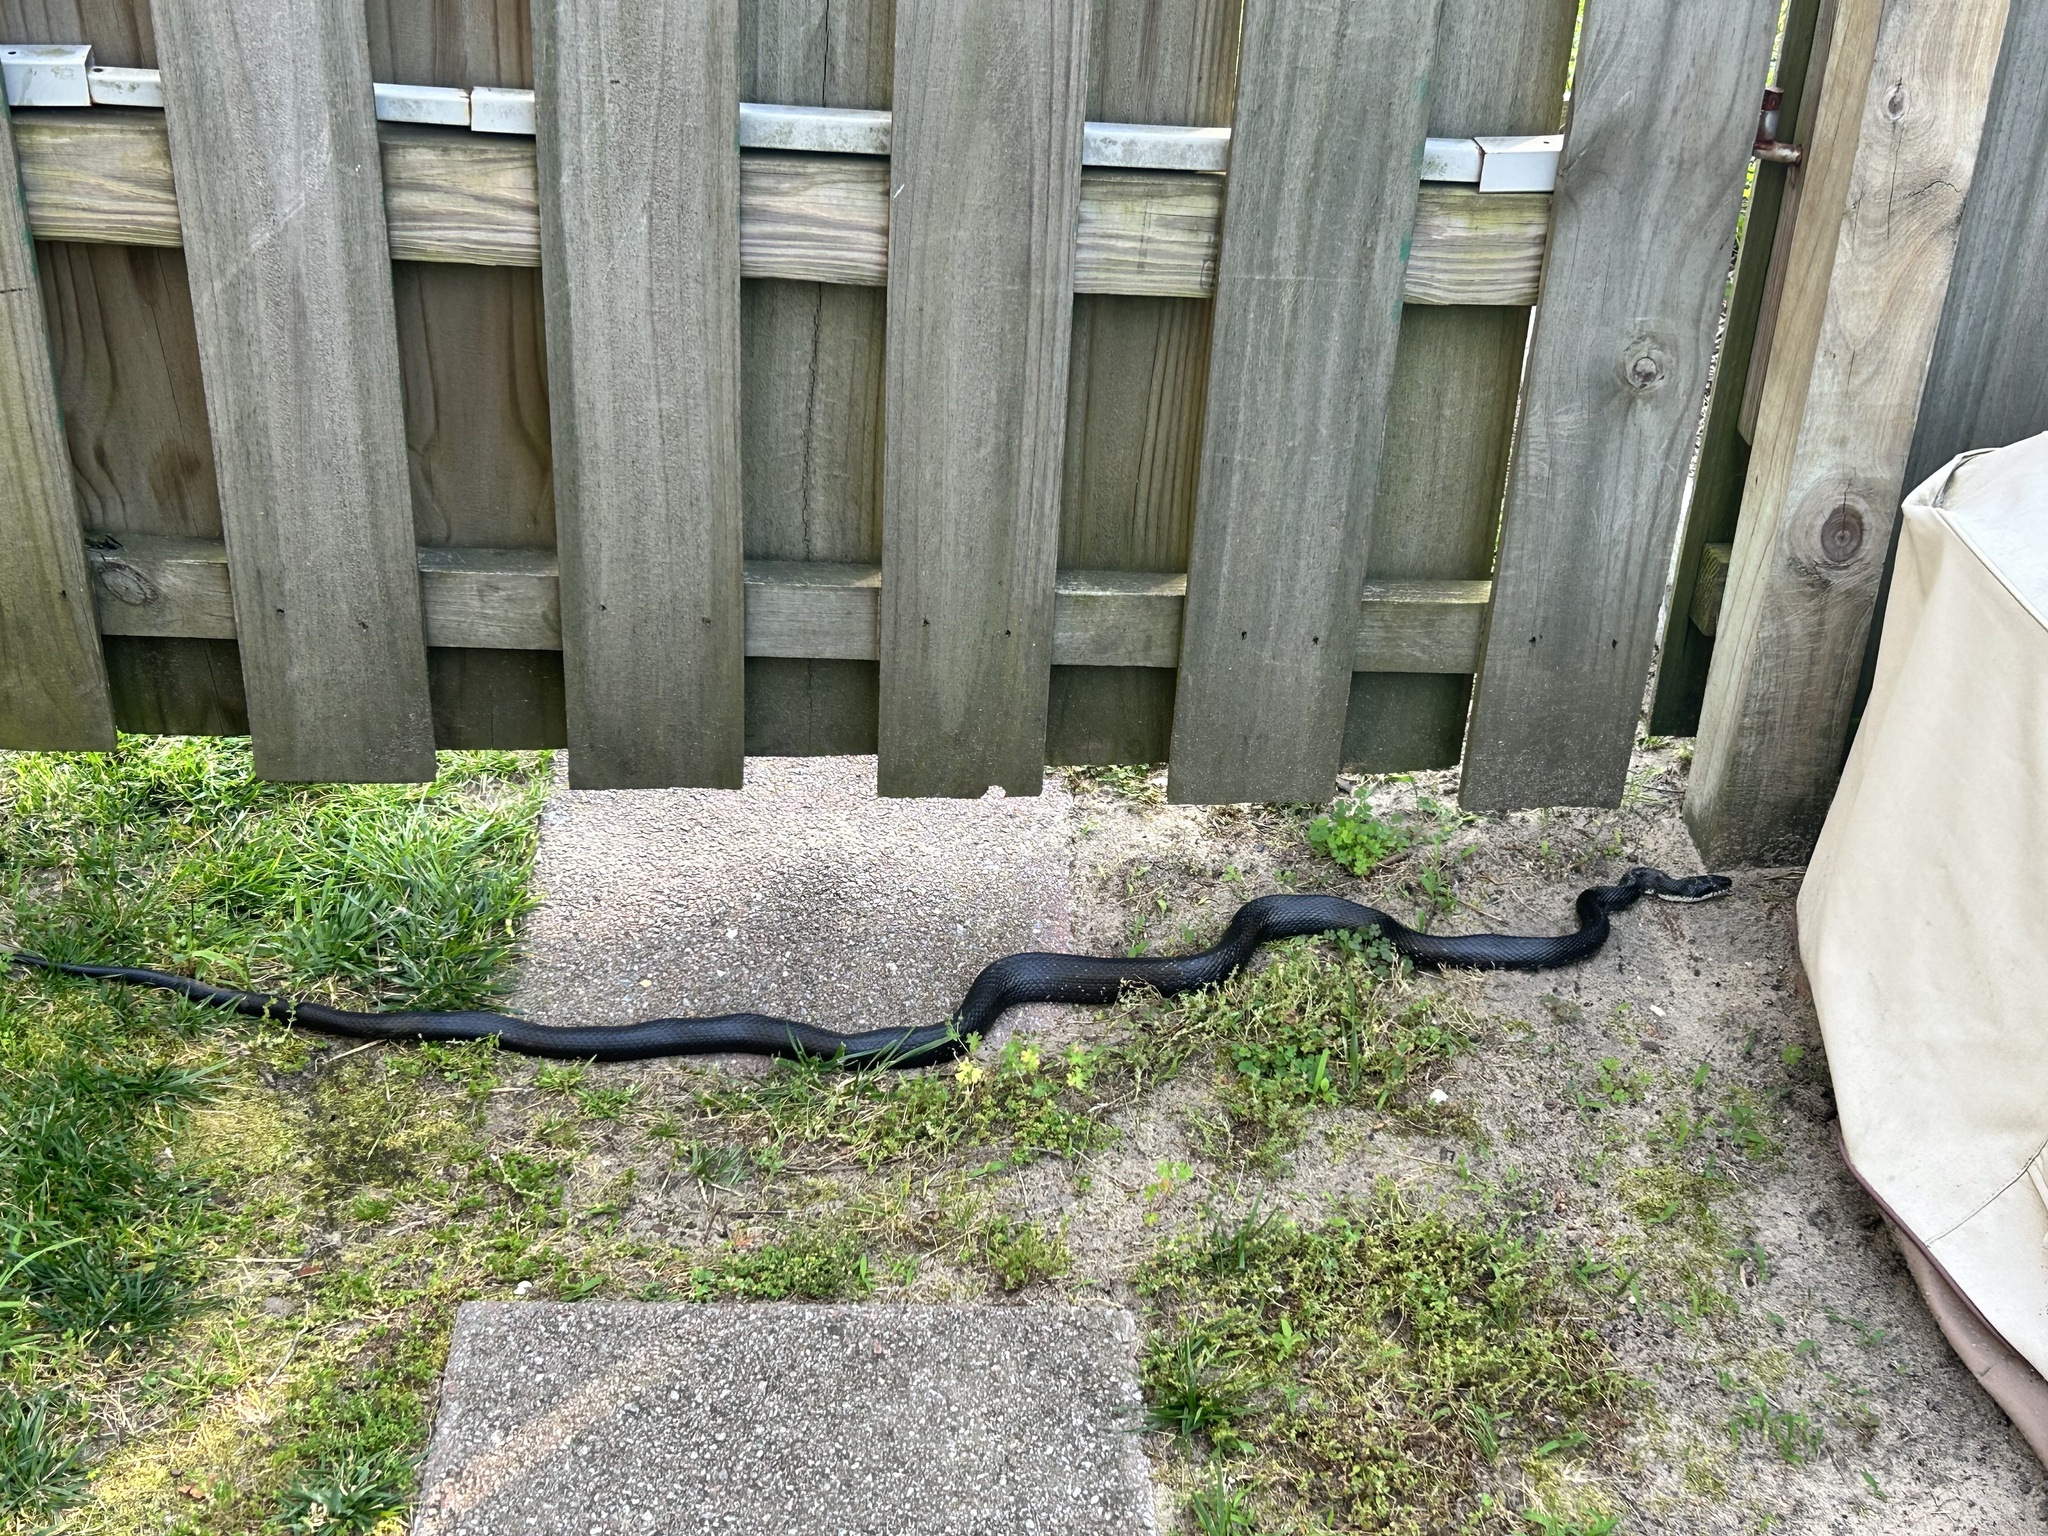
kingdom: Animalia
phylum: Chordata
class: Squamata
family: Colubridae
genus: Pantherophis
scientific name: Pantherophis
